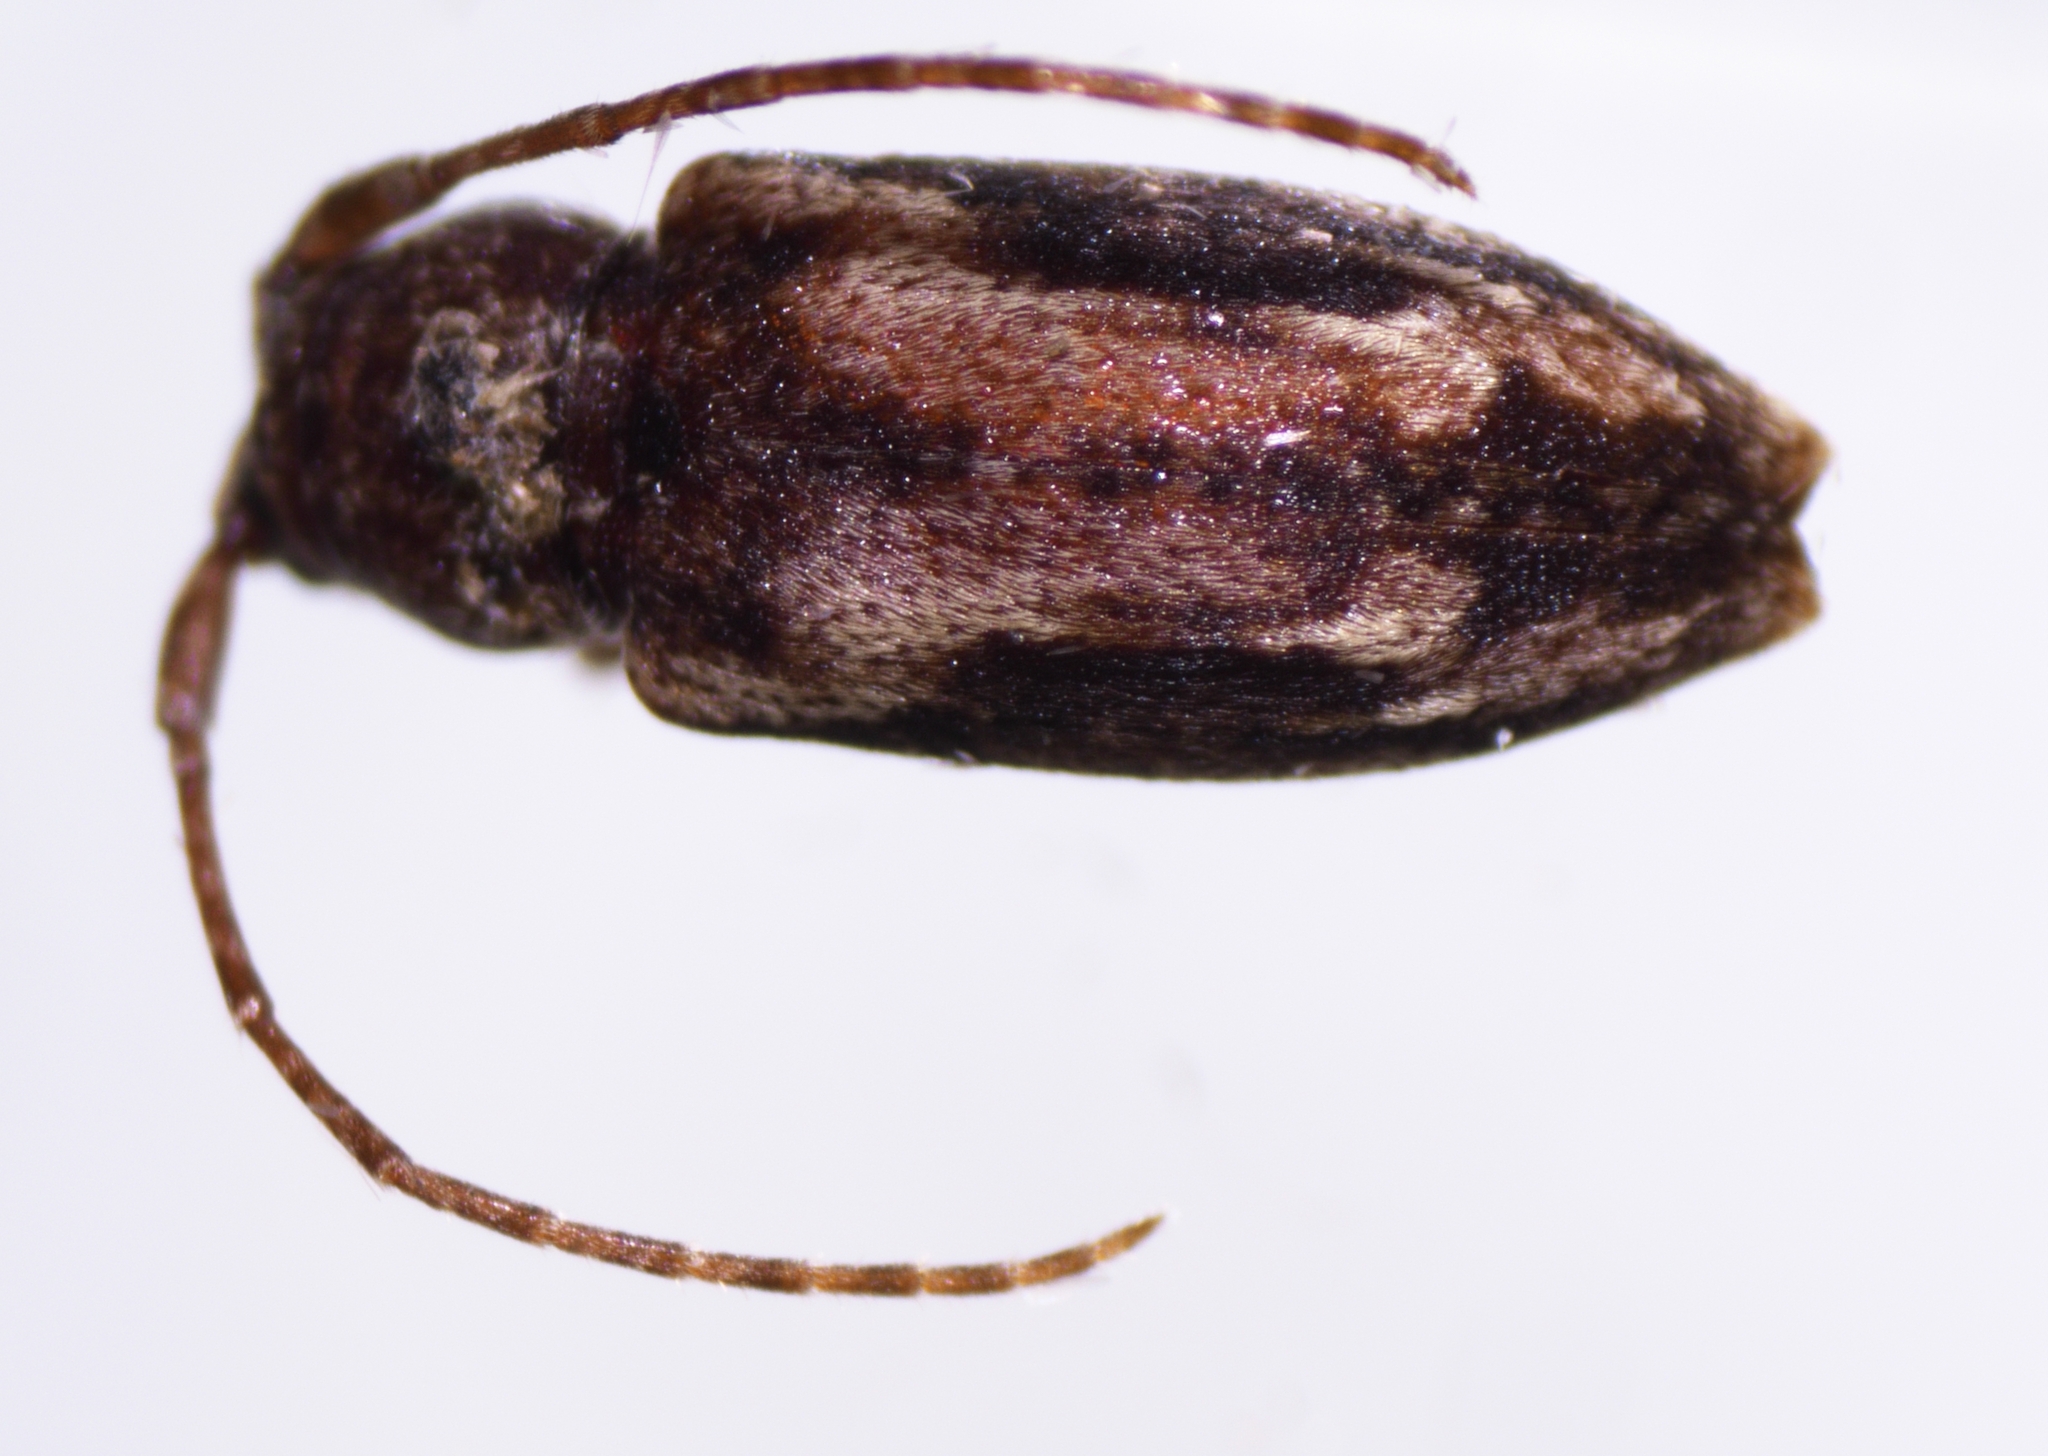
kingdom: Animalia
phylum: Arthropoda
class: Insecta
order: Coleoptera
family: Cerambycidae
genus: Pterolophia
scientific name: Pterolophia lateripicta
